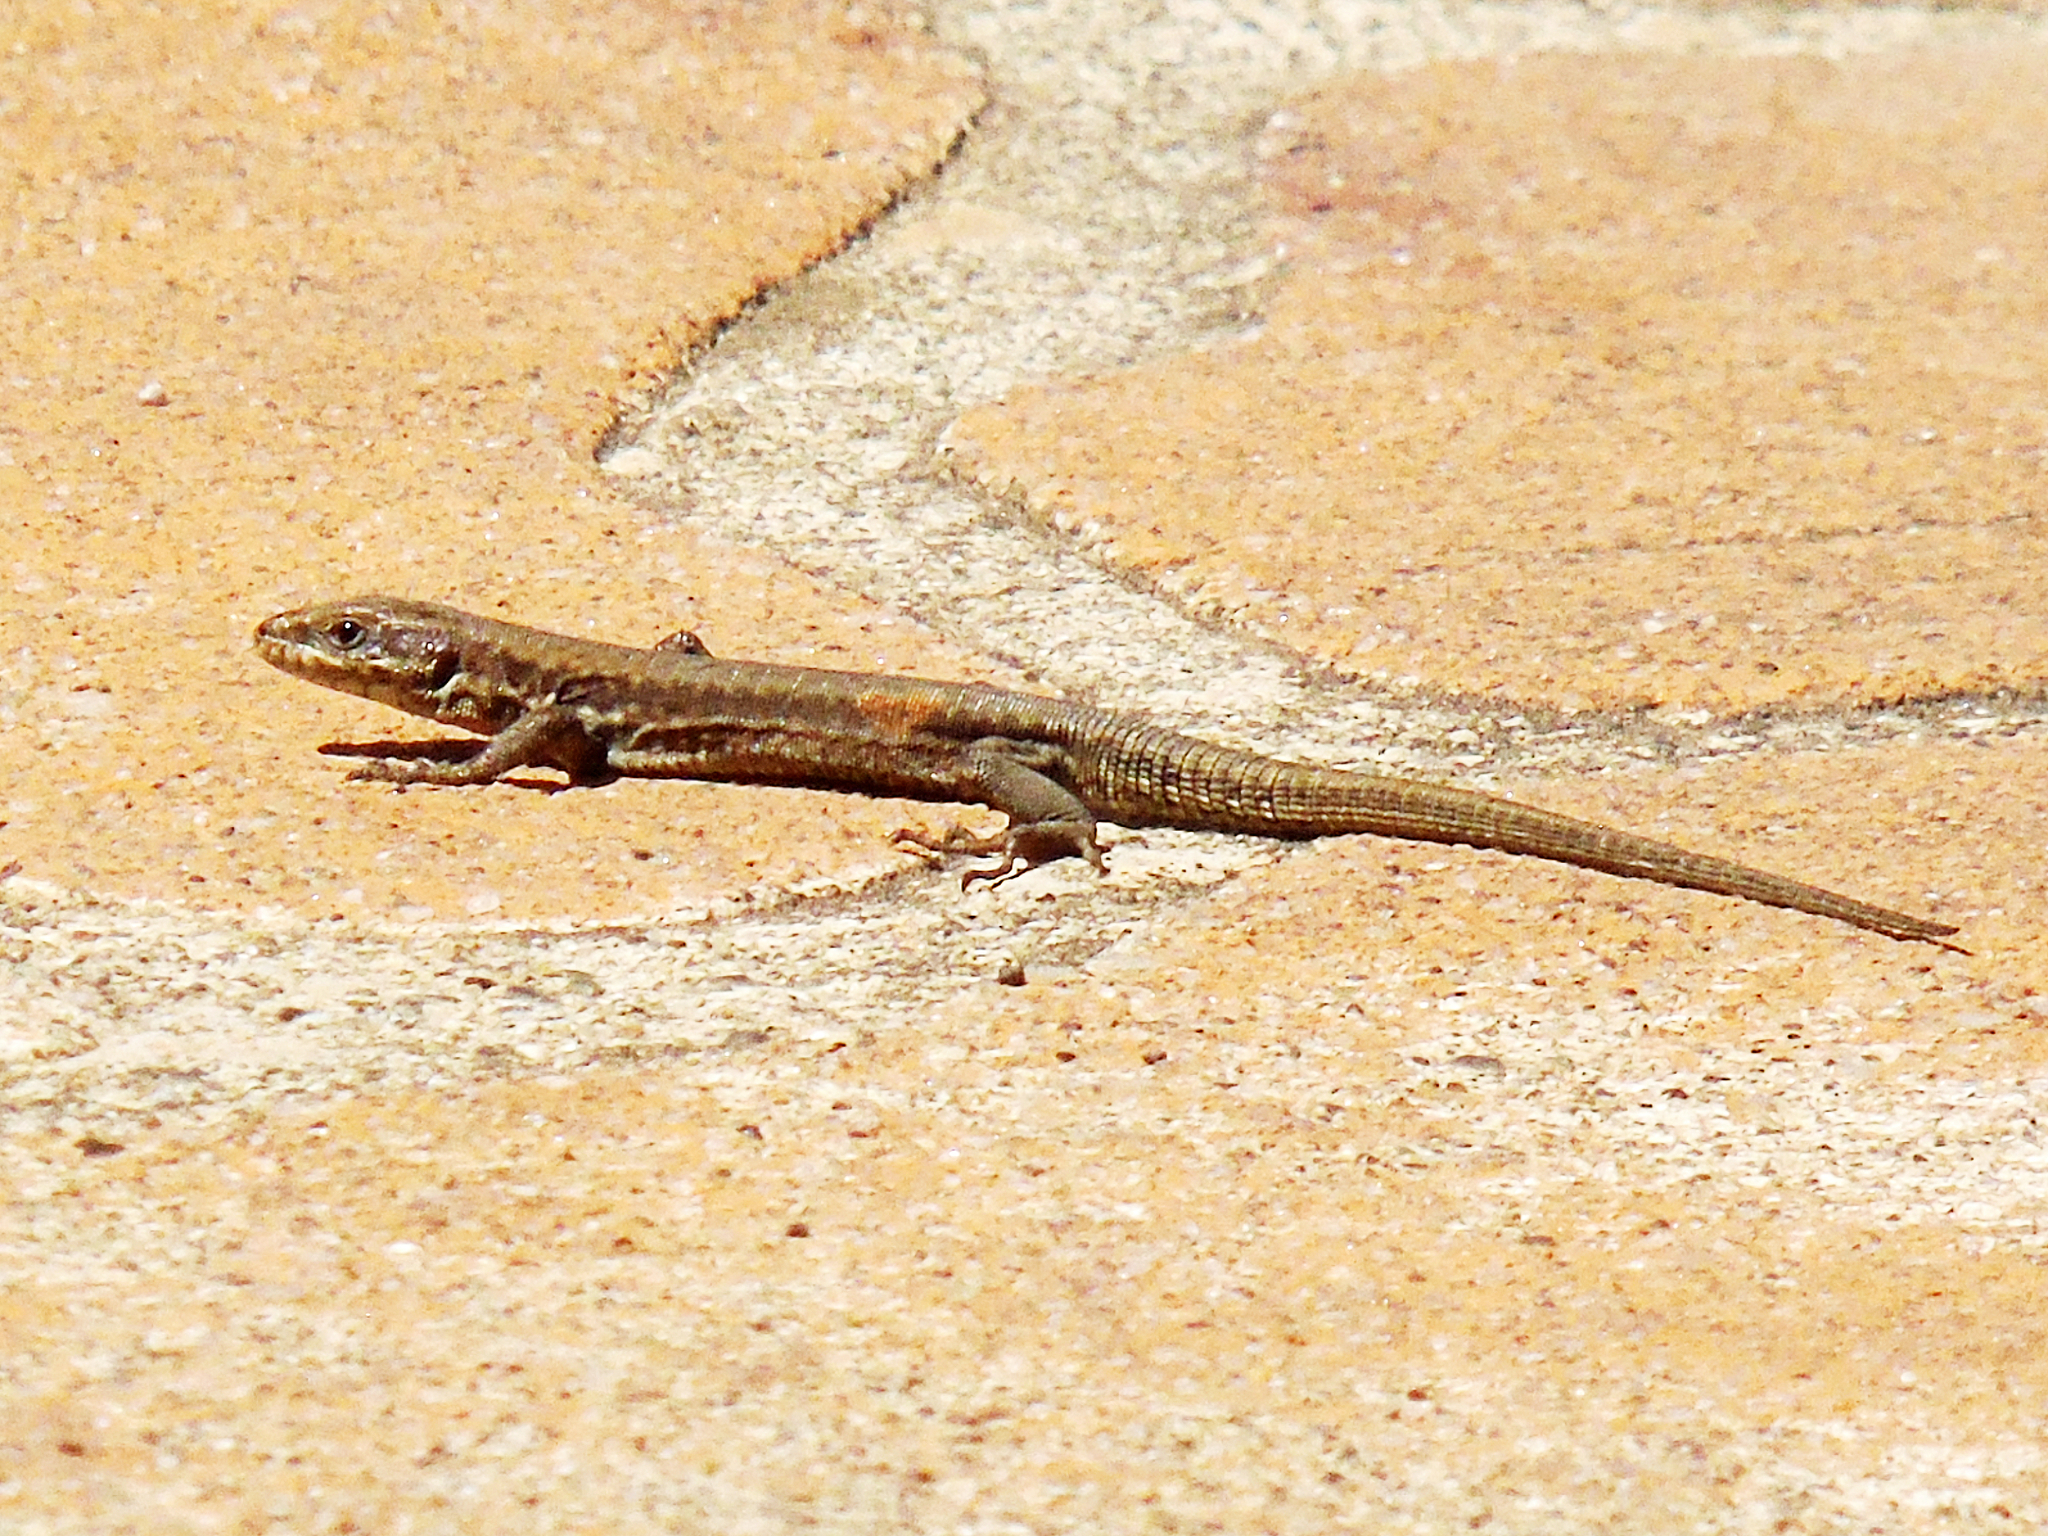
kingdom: Animalia
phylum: Chordata
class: Squamata
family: Lacertidae
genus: Podarcis
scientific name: Podarcis muralis
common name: Common wall lizard
